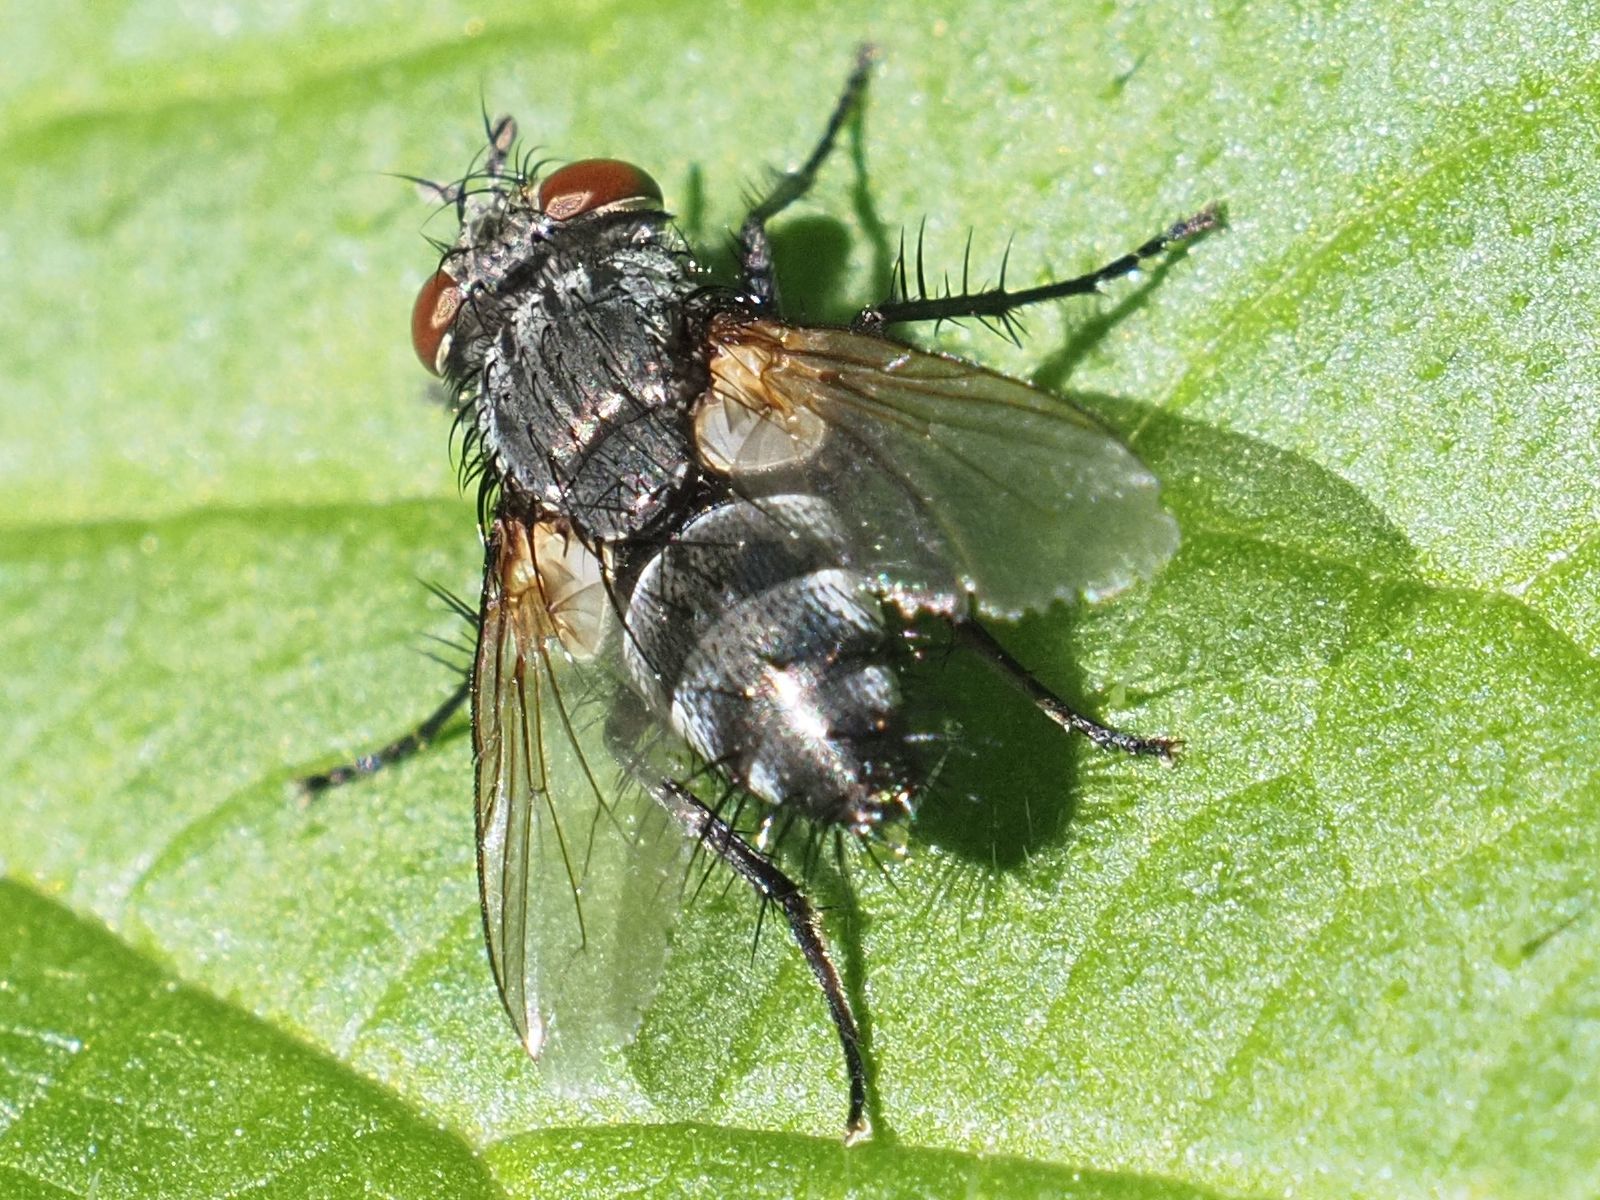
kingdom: Animalia
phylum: Arthropoda
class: Insecta
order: Diptera
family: Tachinidae
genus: Voria
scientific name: Voria ruralis
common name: Parasitic fly
